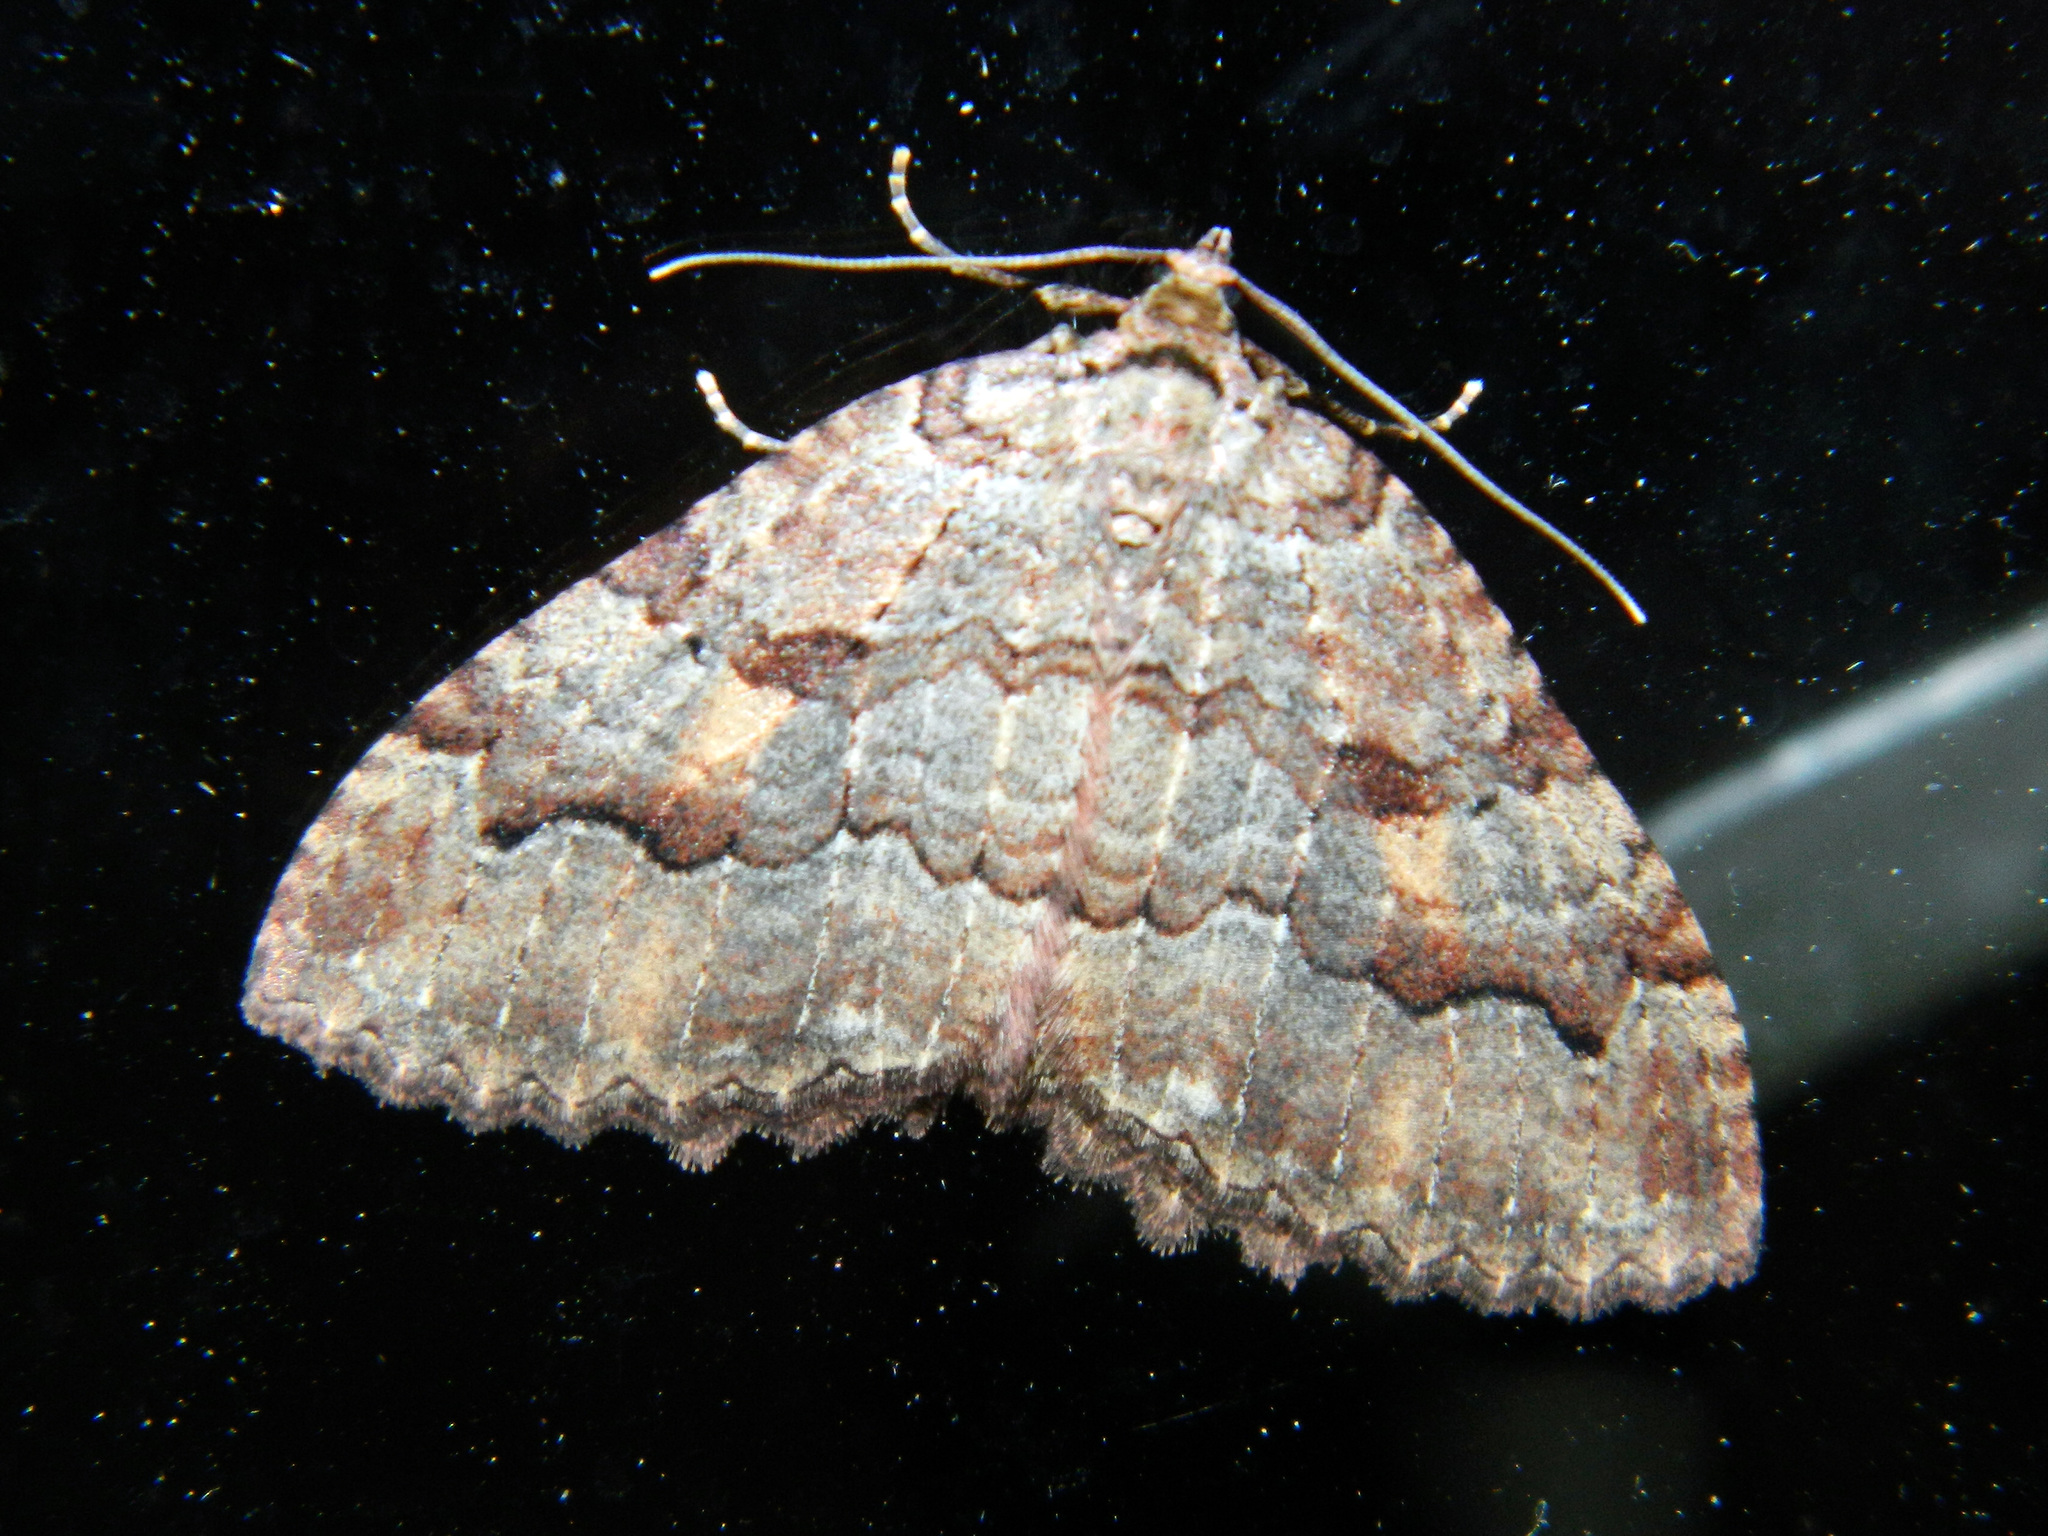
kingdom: Animalia
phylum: Arthropoda
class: Insecta
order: Lepidoptera
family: Geometridae
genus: Triphosa
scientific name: Triphosa haesitata
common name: Tissue moth
